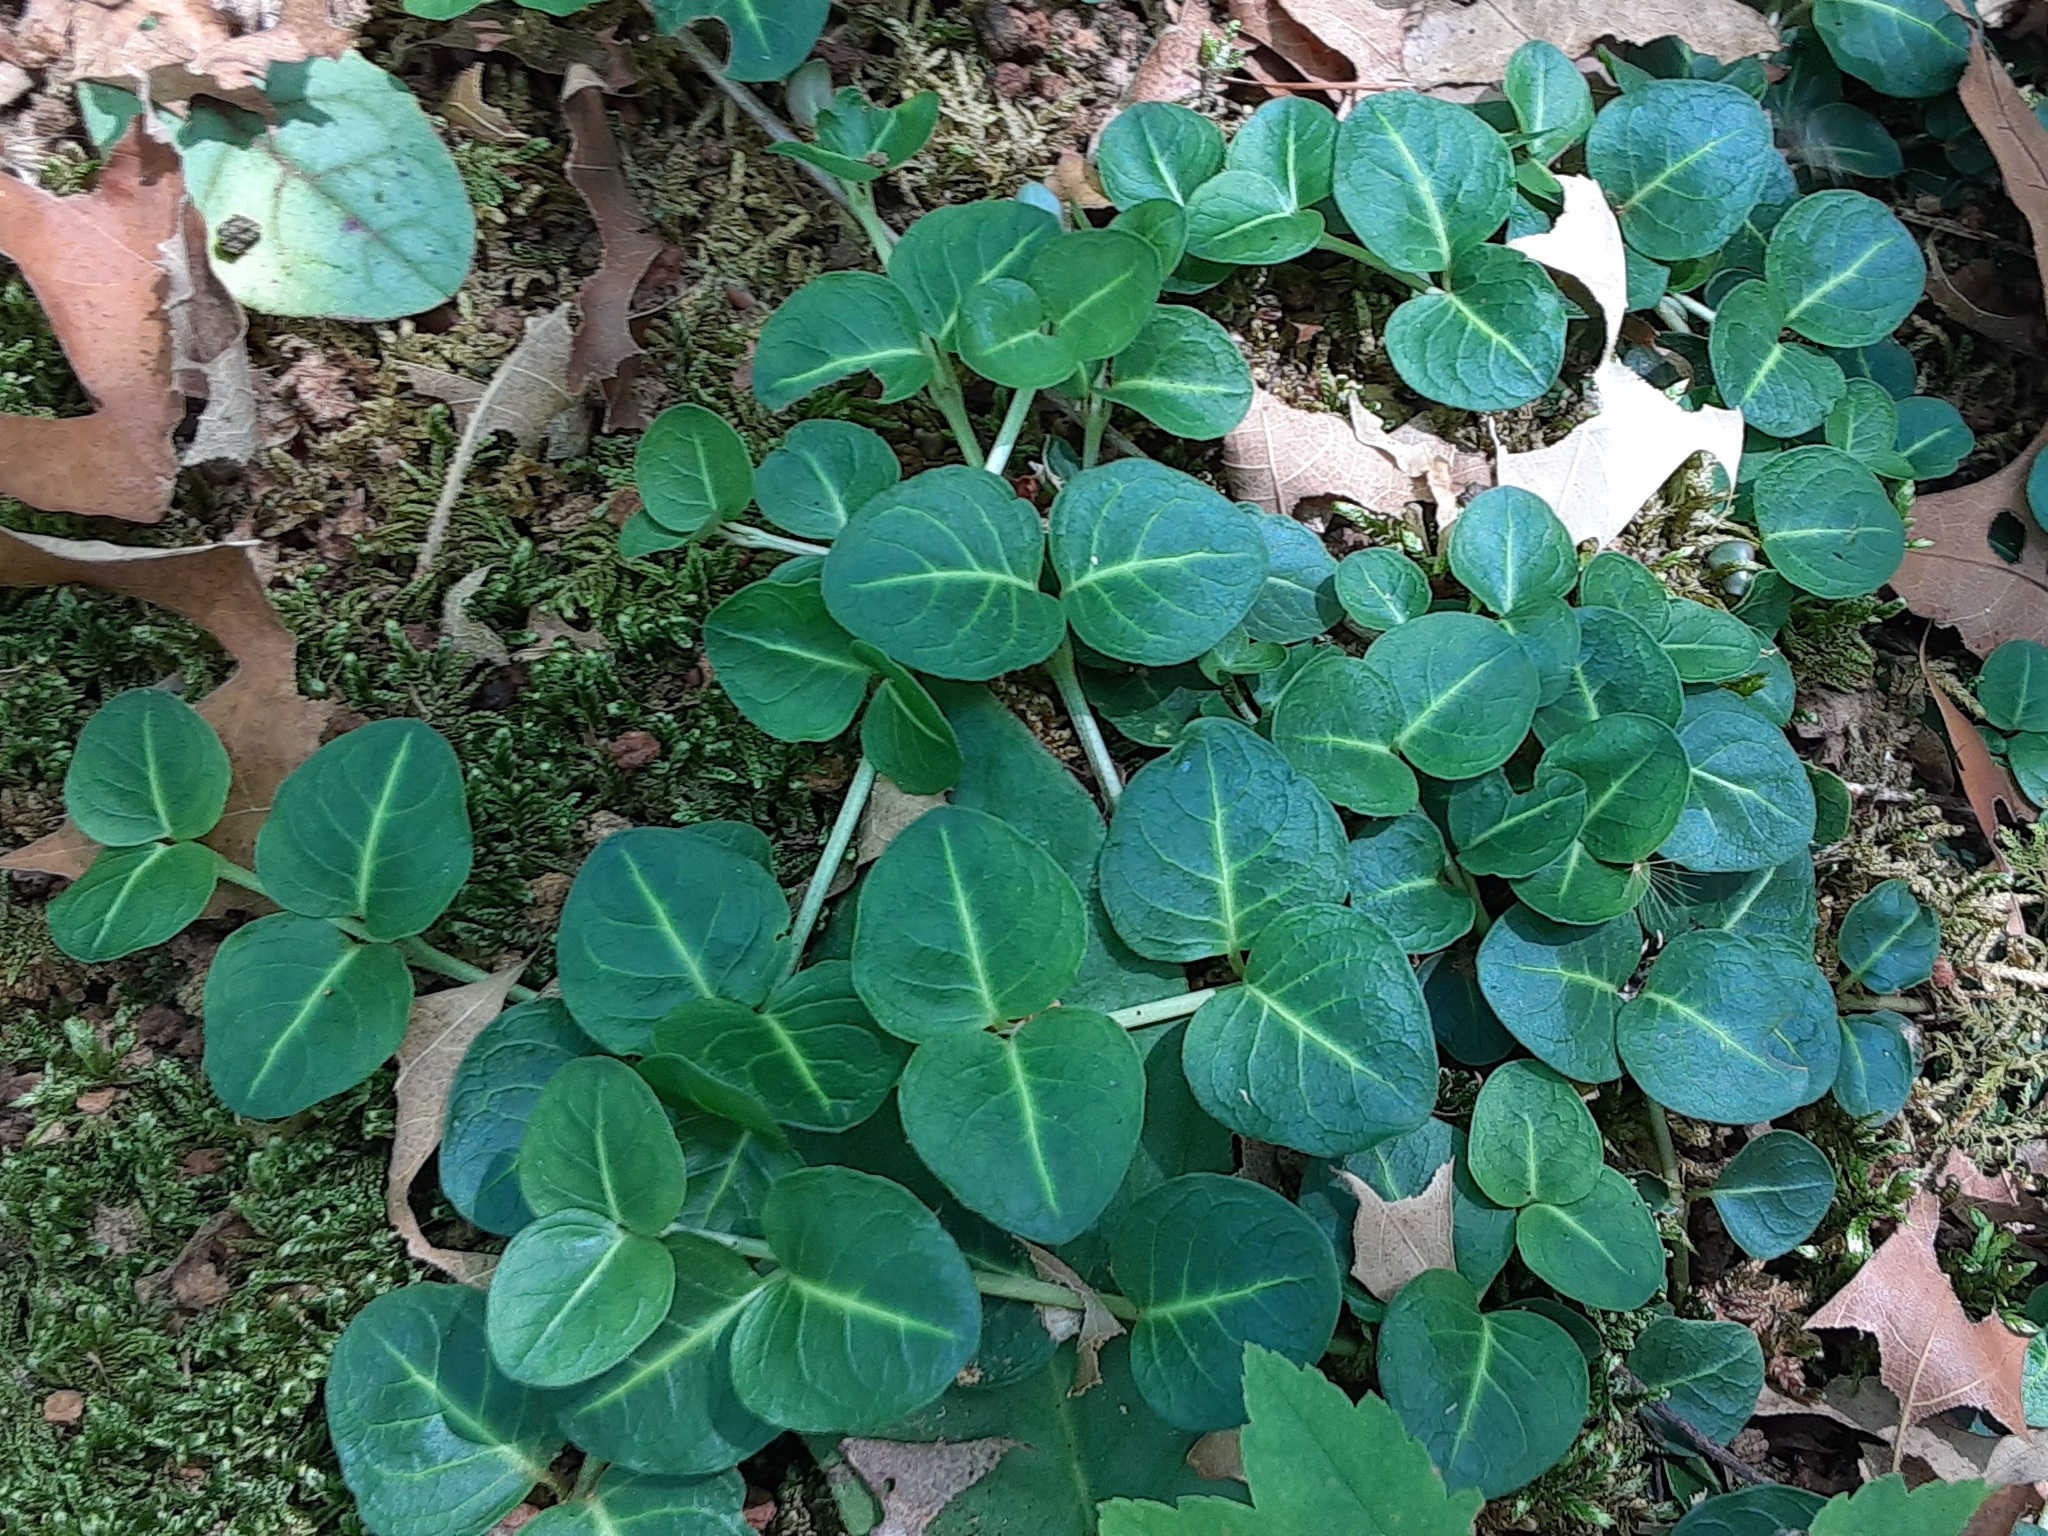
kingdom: Plantae
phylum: Tracheophyta
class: Magnoliopsida
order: Gentianales
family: Rubiaceae
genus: Mitchella
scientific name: Mitchella repens
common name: Partridge-berry
